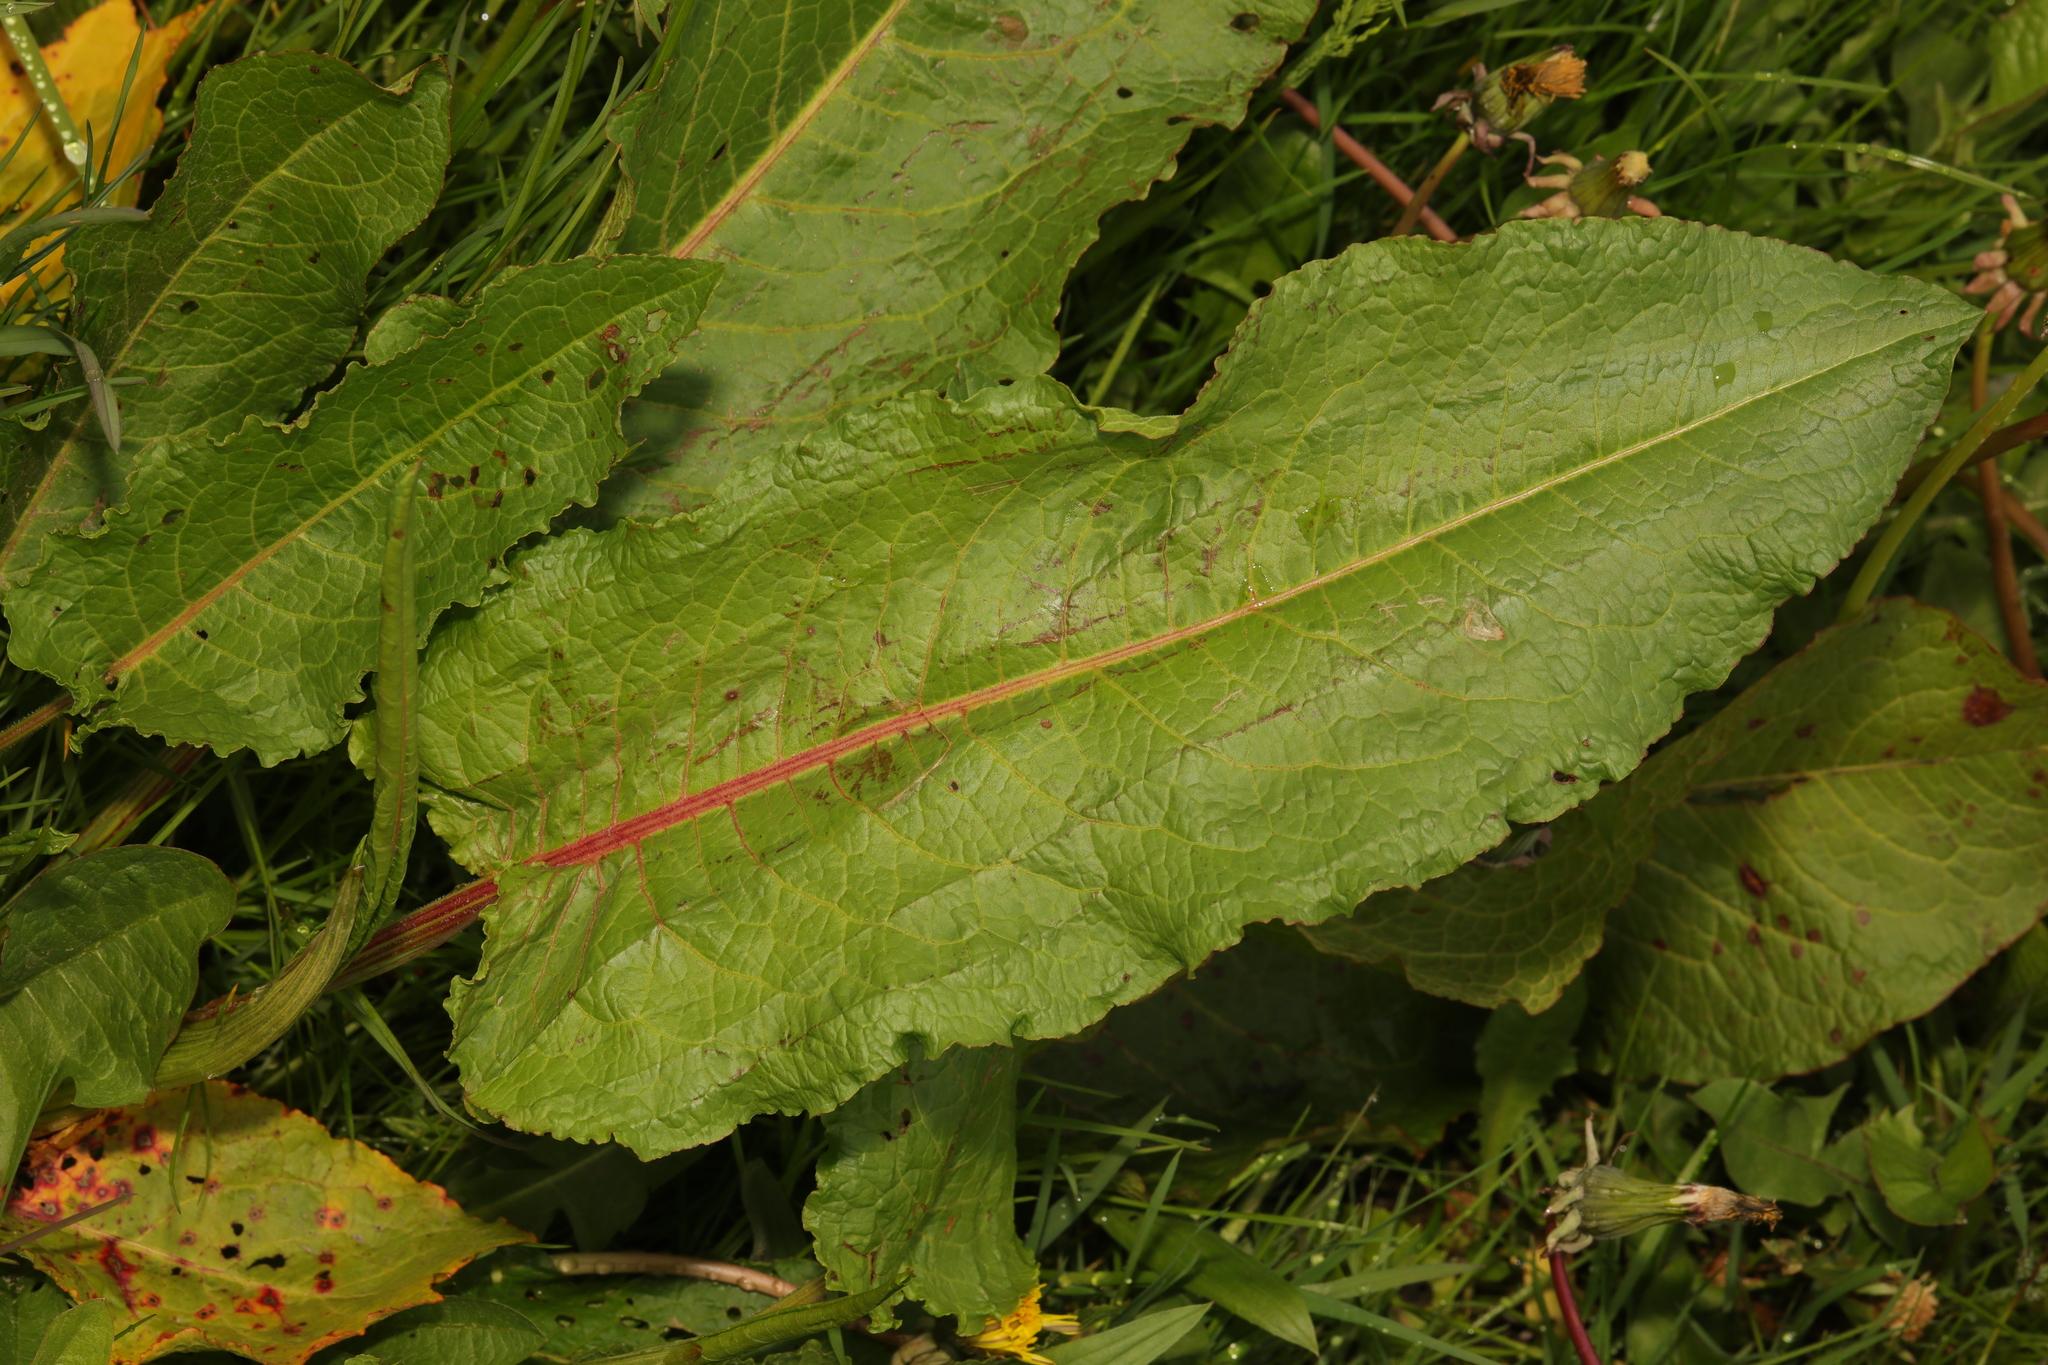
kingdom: Plantae
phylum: Tracheophyta
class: Magnoliopsida
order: Caryophyllales
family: Polygonaceae
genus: Rumex
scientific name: Rumex obtusifolius
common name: Bitter dock
